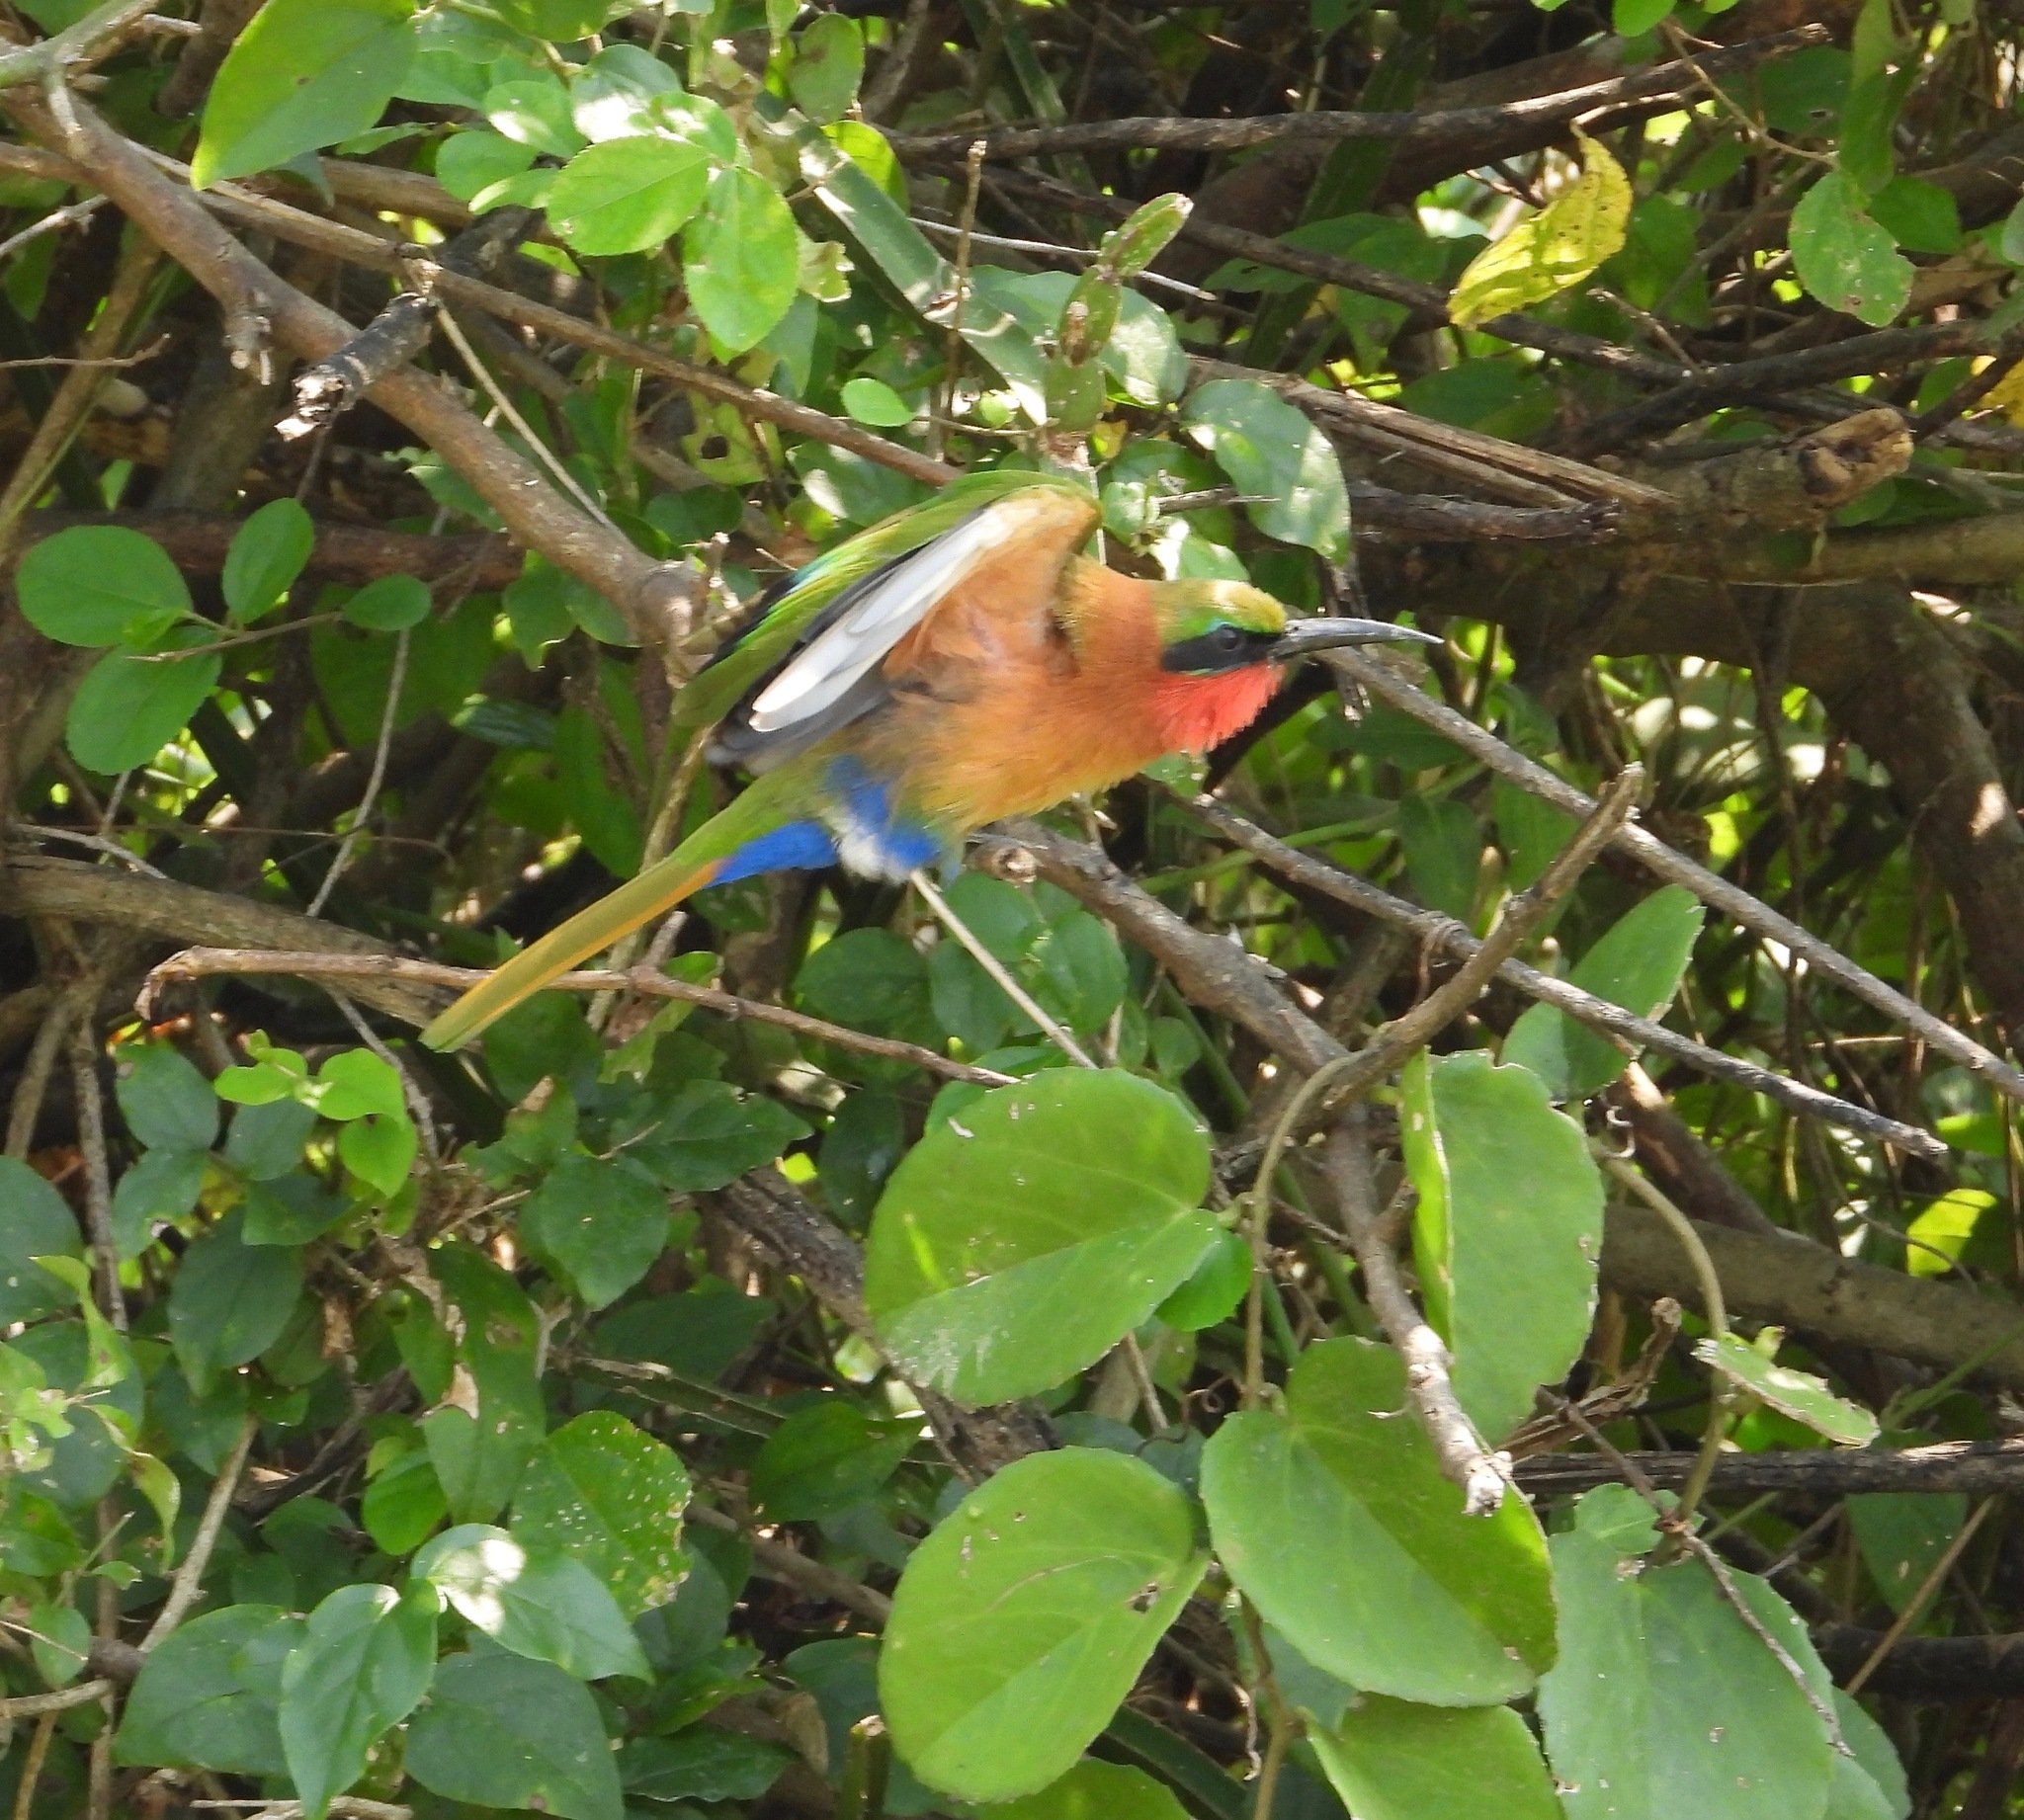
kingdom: Animalia
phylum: Chordata
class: Aves
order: Coraciiformes
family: Meropidae
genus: Merops
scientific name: Merops bulocki
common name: Red-throated bee-eater
